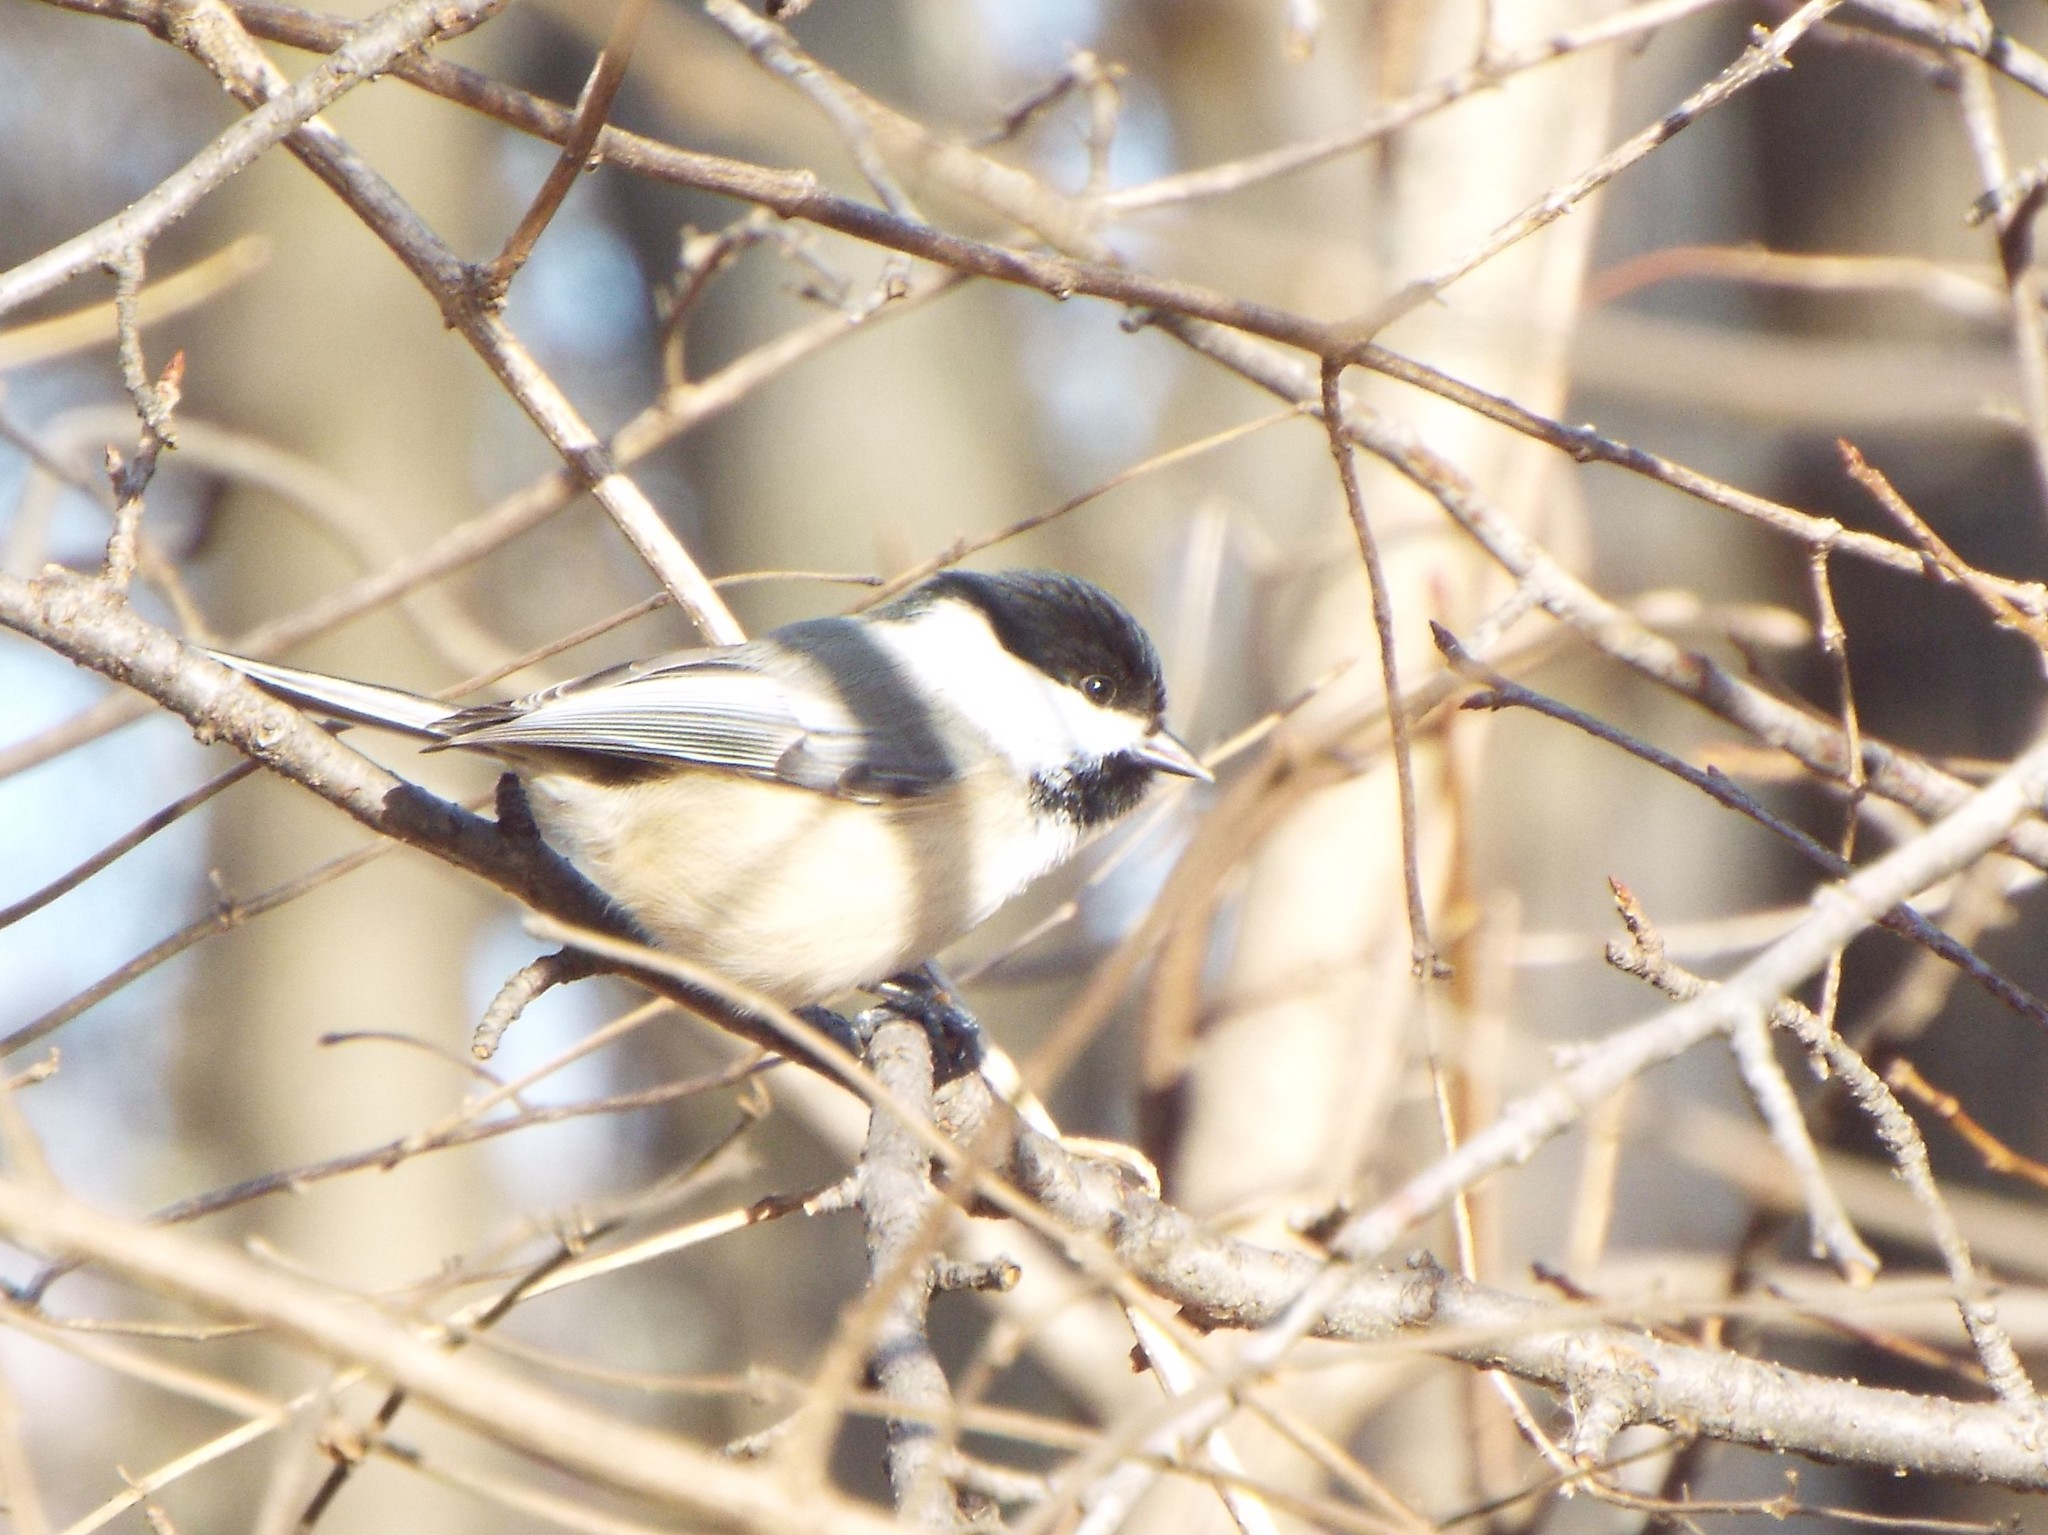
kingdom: Animalia
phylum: Chordata
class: Aves
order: Passeriformes
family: Paridae
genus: Poecile
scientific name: Poecile atricapillus
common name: Black-capped chickadee
